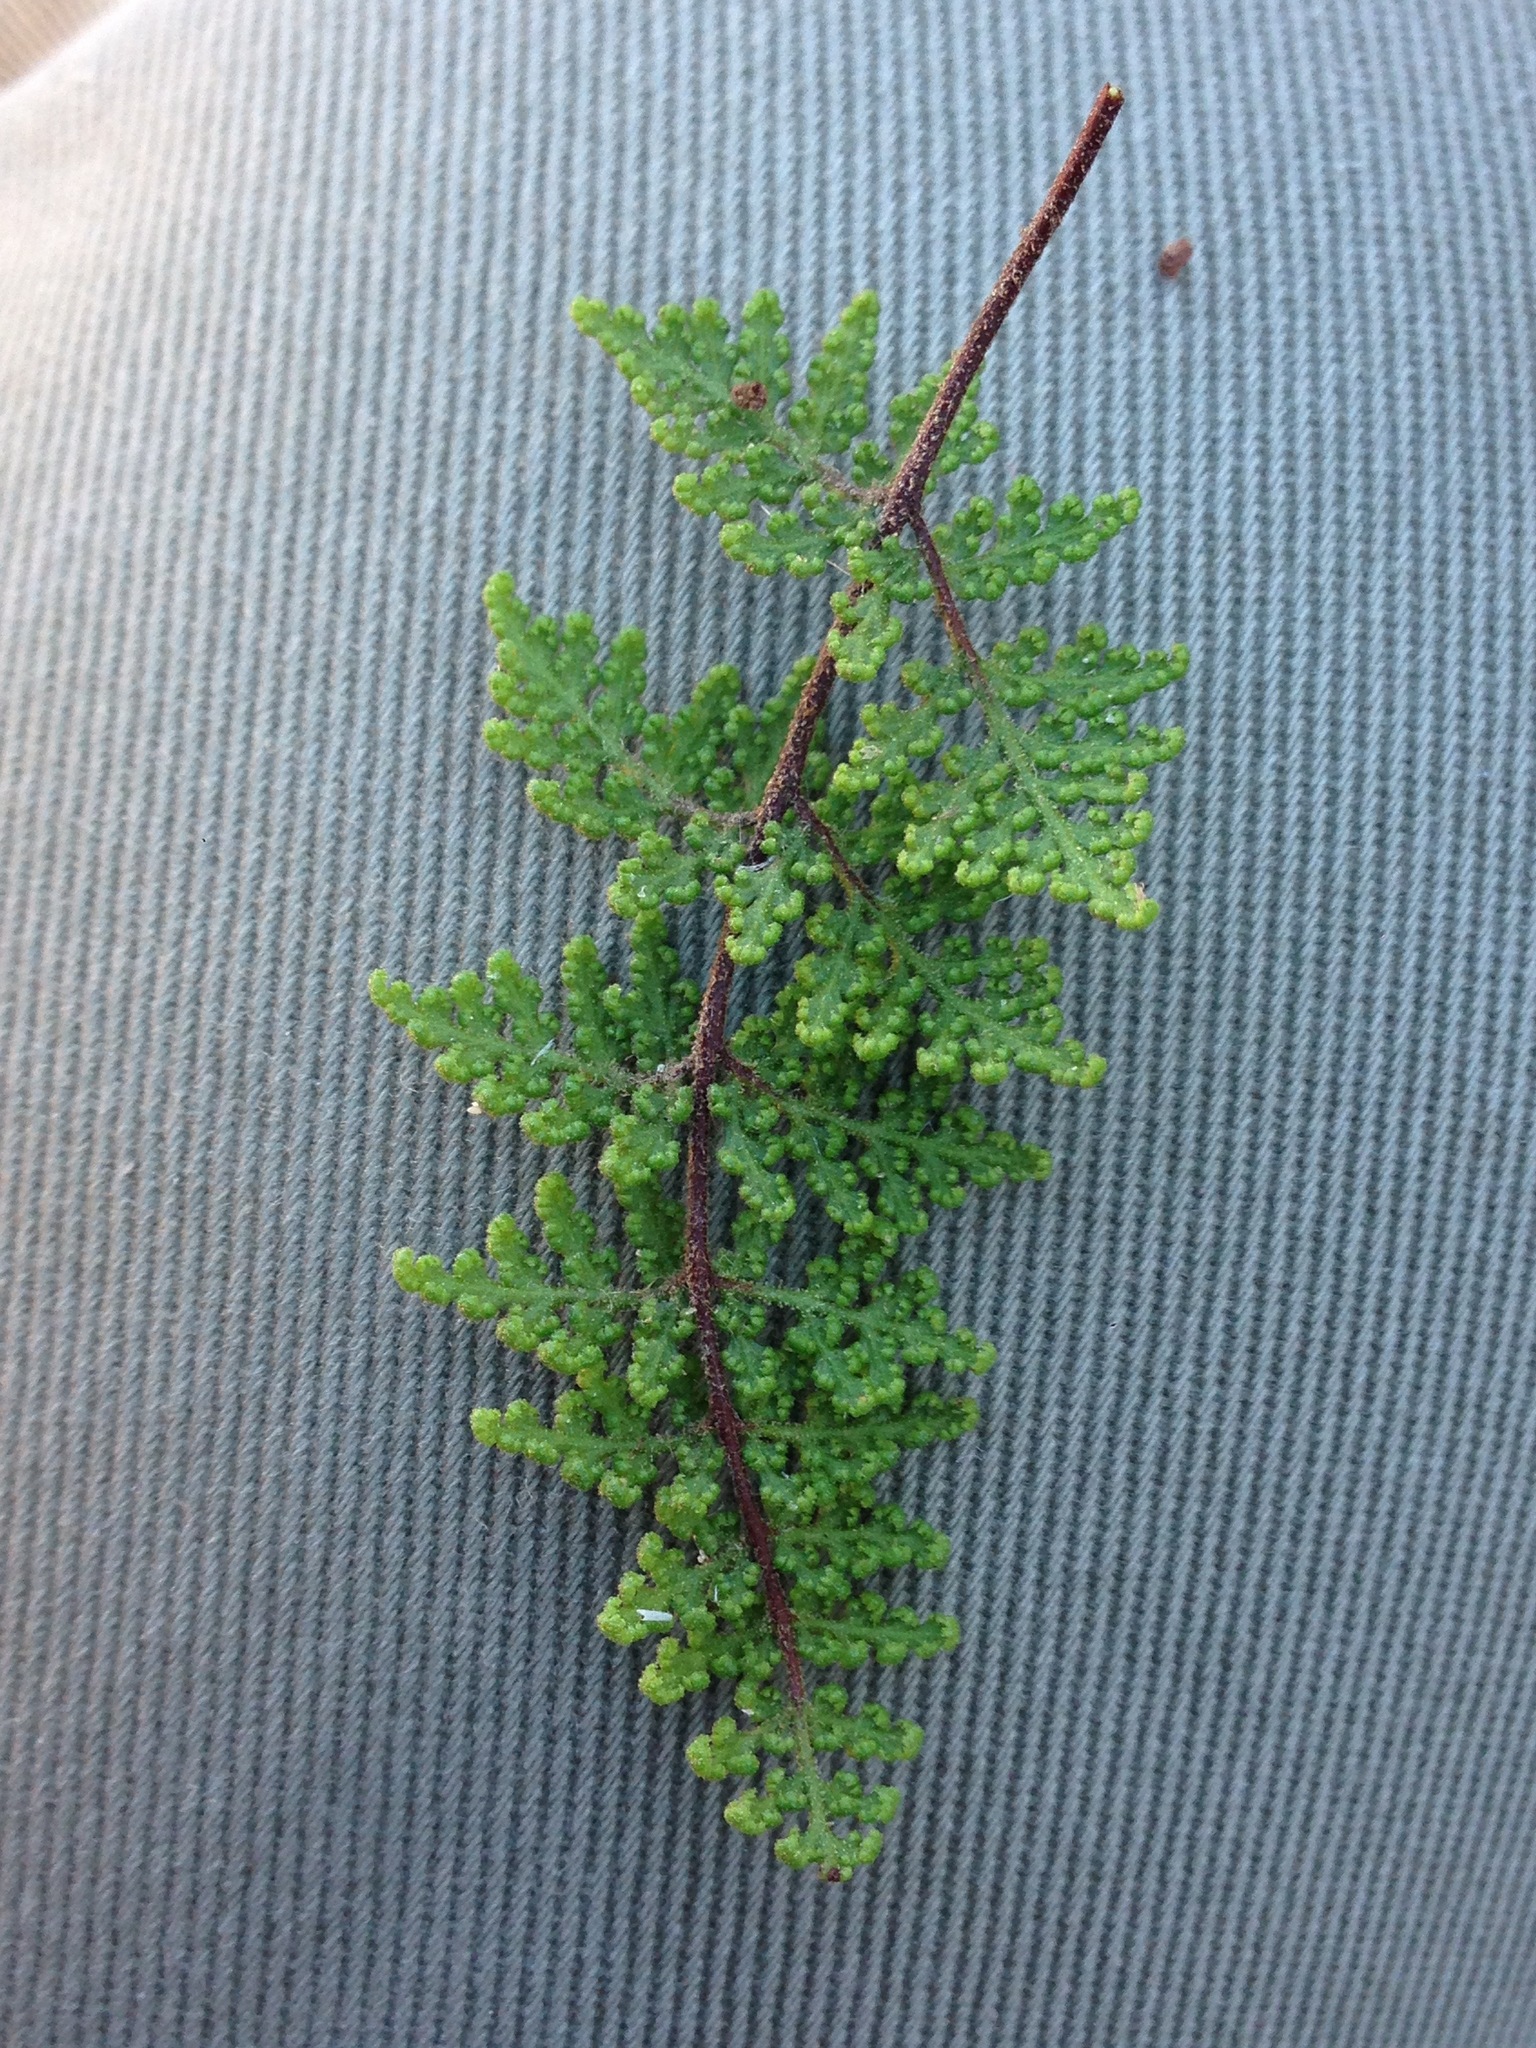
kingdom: Plantae
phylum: Tracheophyta
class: Polypodiopsida
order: Polypodiales
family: Pteridaceae
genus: Myriopteris
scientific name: Myriopteris viscida
